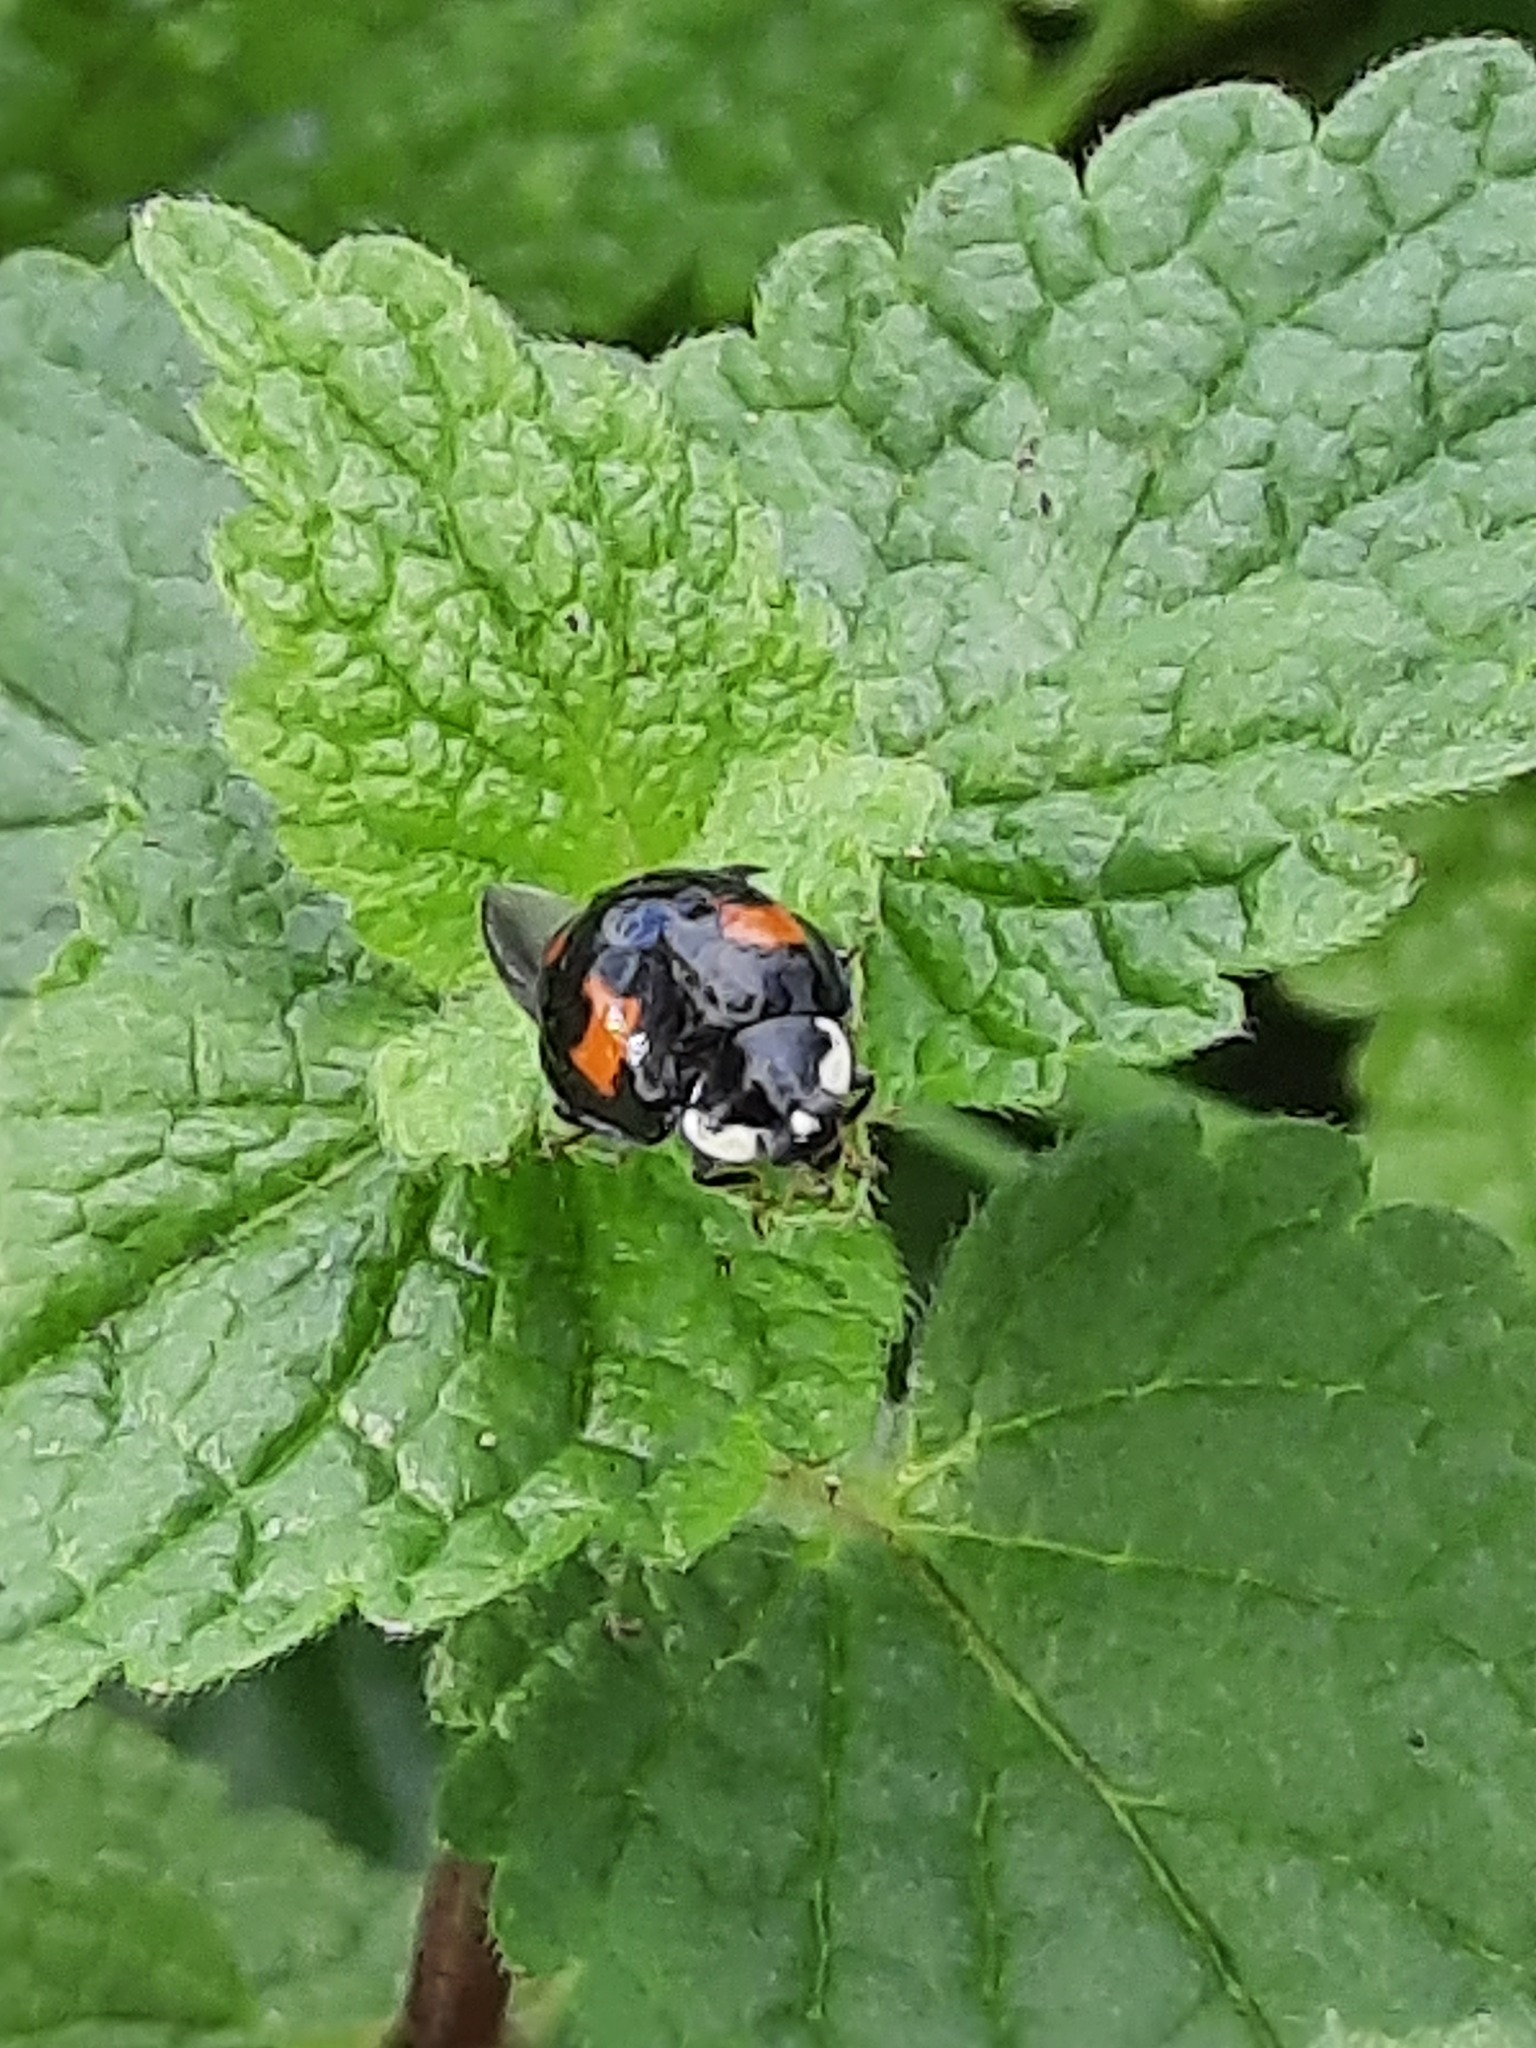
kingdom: Animalia
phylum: Arthropoda
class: Insecta
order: Coleoptera
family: Coccinellidae
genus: Harmonia
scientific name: Harmonia axyridis
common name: Harlequin ladybird
